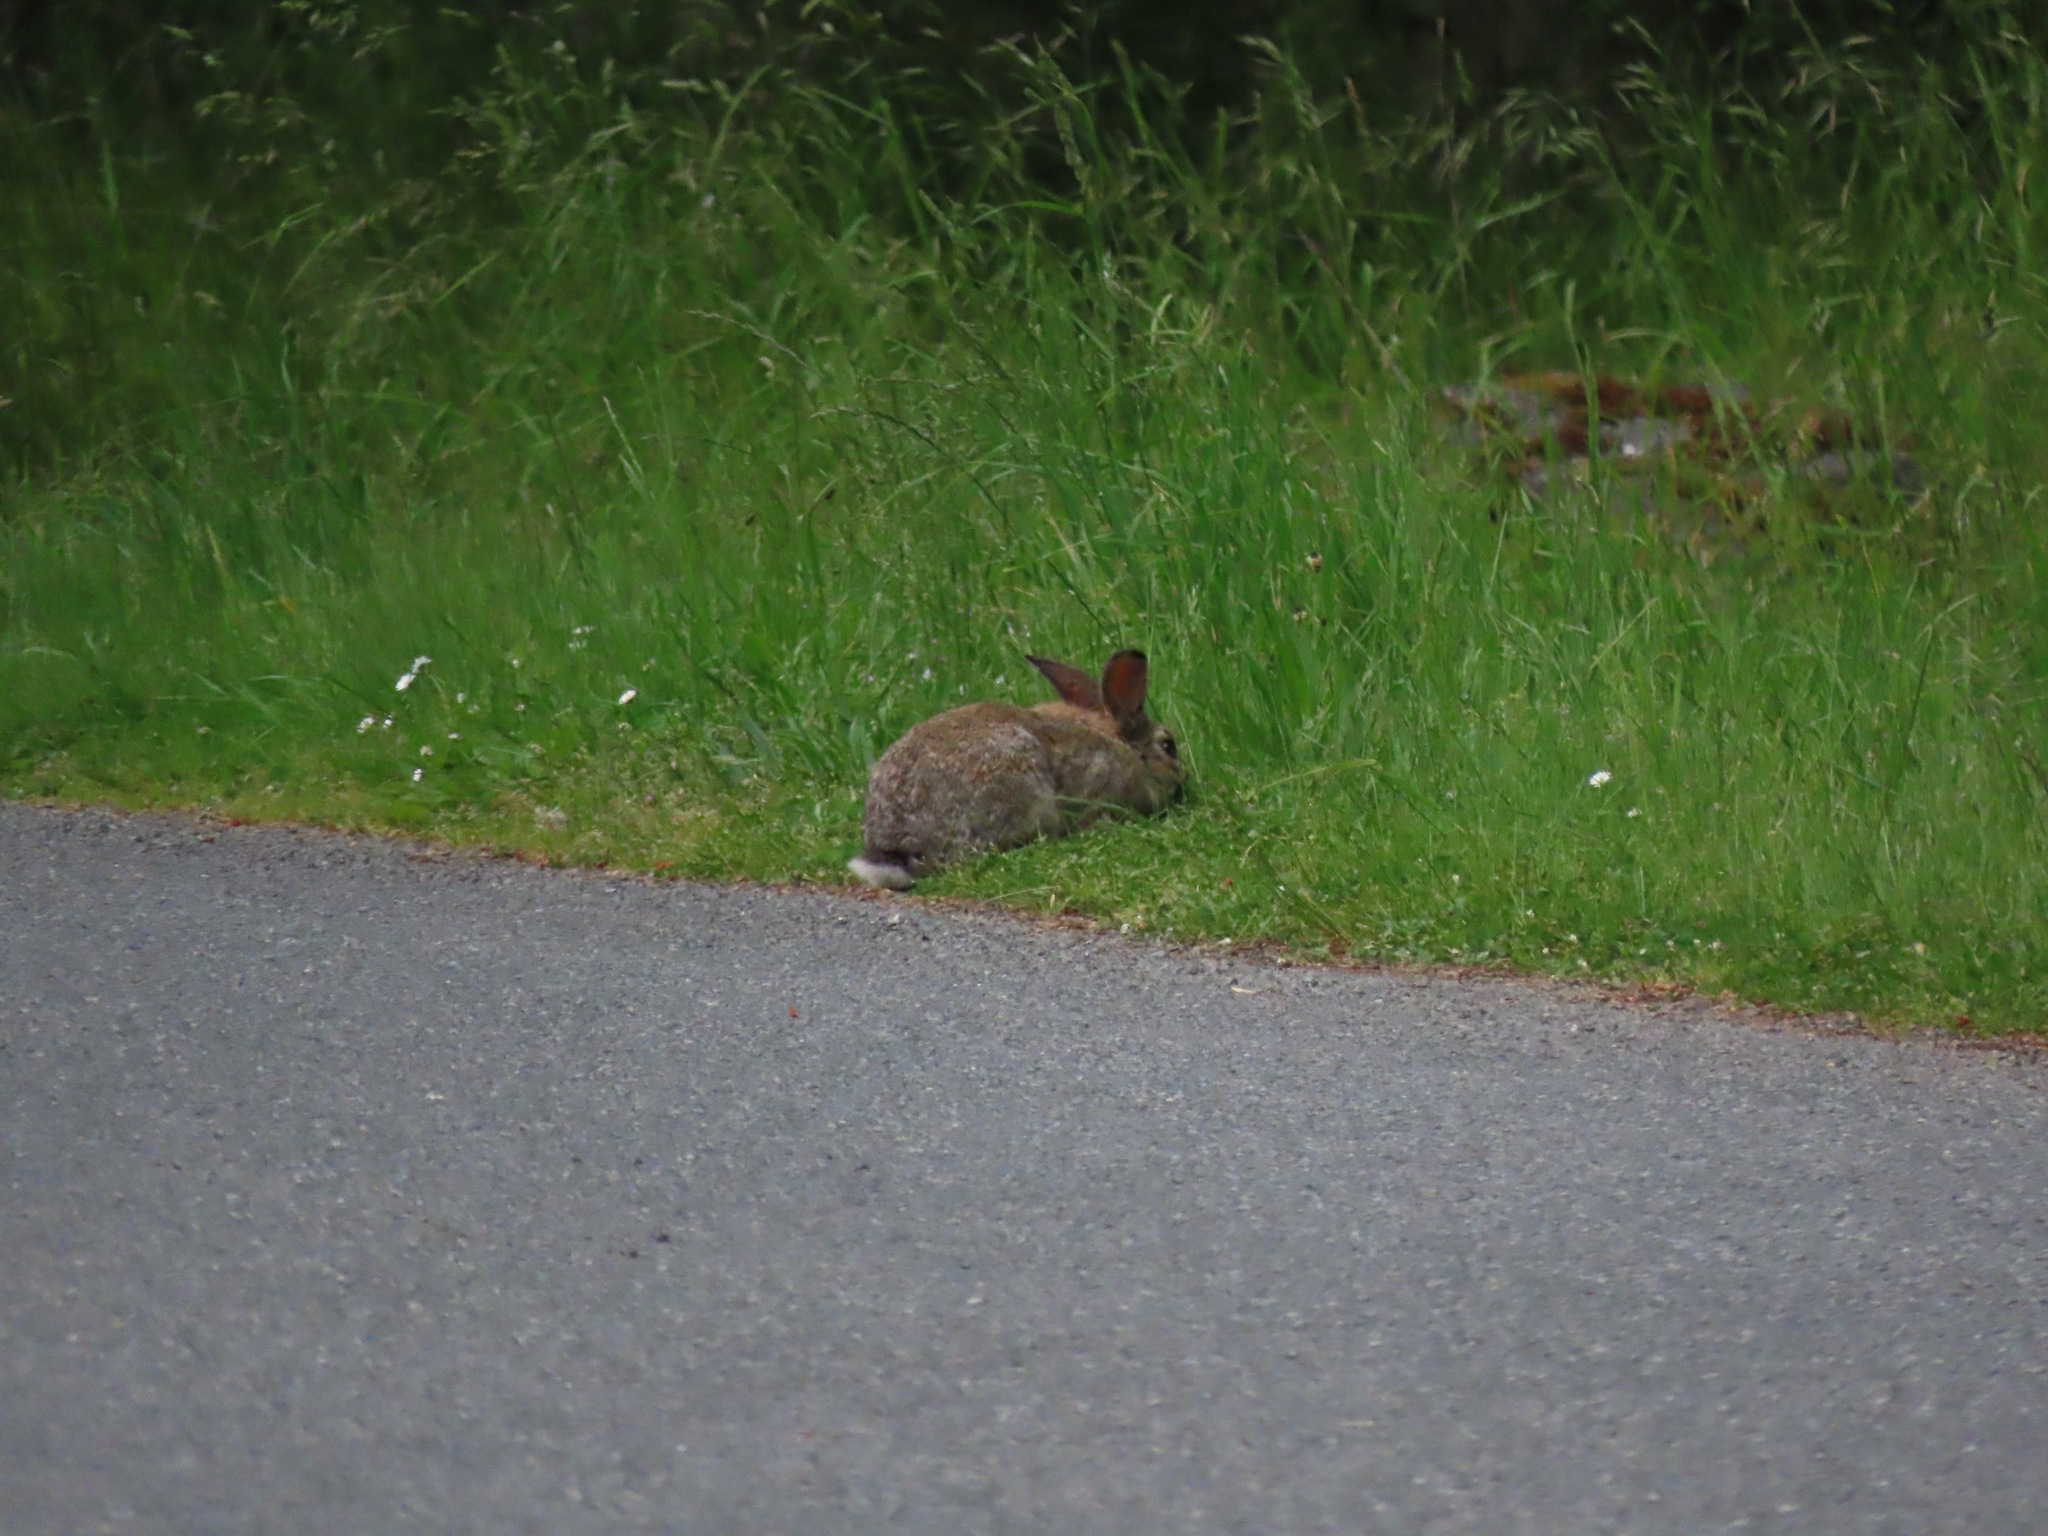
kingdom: Animalia
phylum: Chordata
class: Mammalia
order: Lagomorpha
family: Leporidae
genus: Sylvilagus
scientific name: Sylvilagus floridanus
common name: Eastern cottontail
